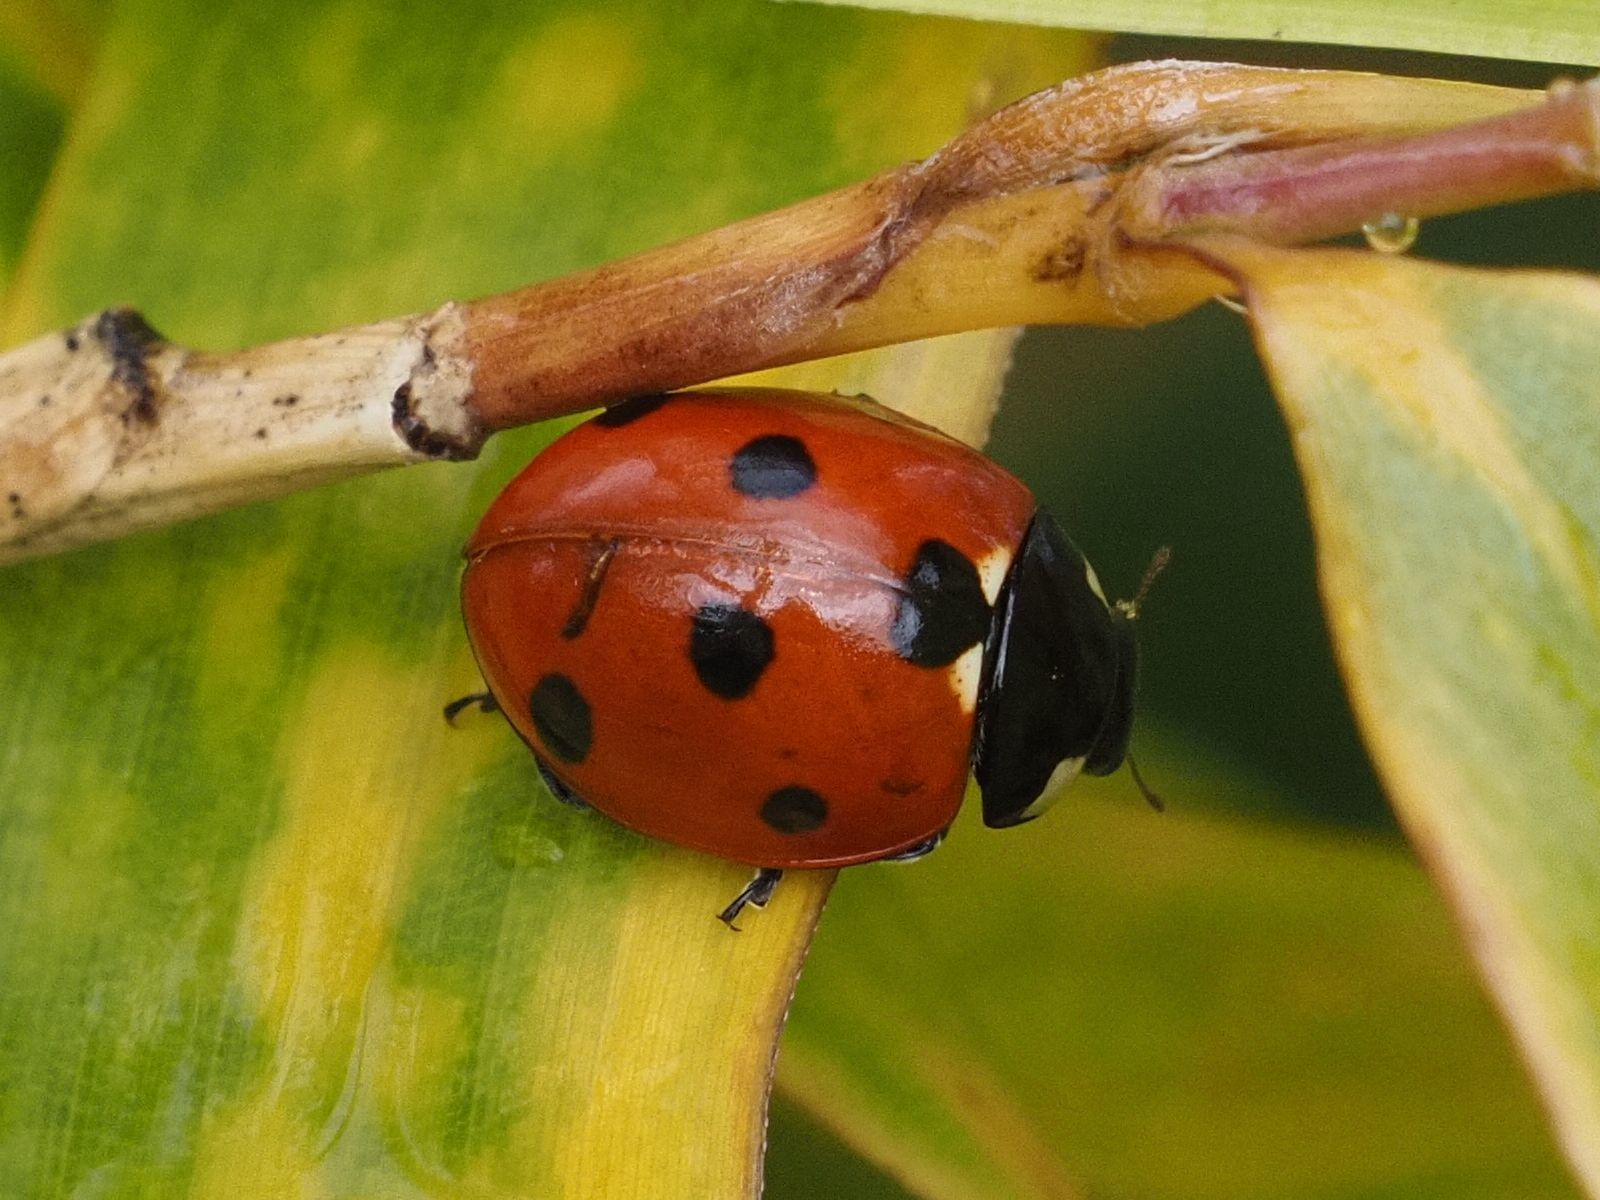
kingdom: Animalia
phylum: Arthropoda
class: Insecta
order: Coleoptera
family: Coccinellidae
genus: Coccinella
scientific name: Coccinella septempunctata
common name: Sevenspotted lady beetle
